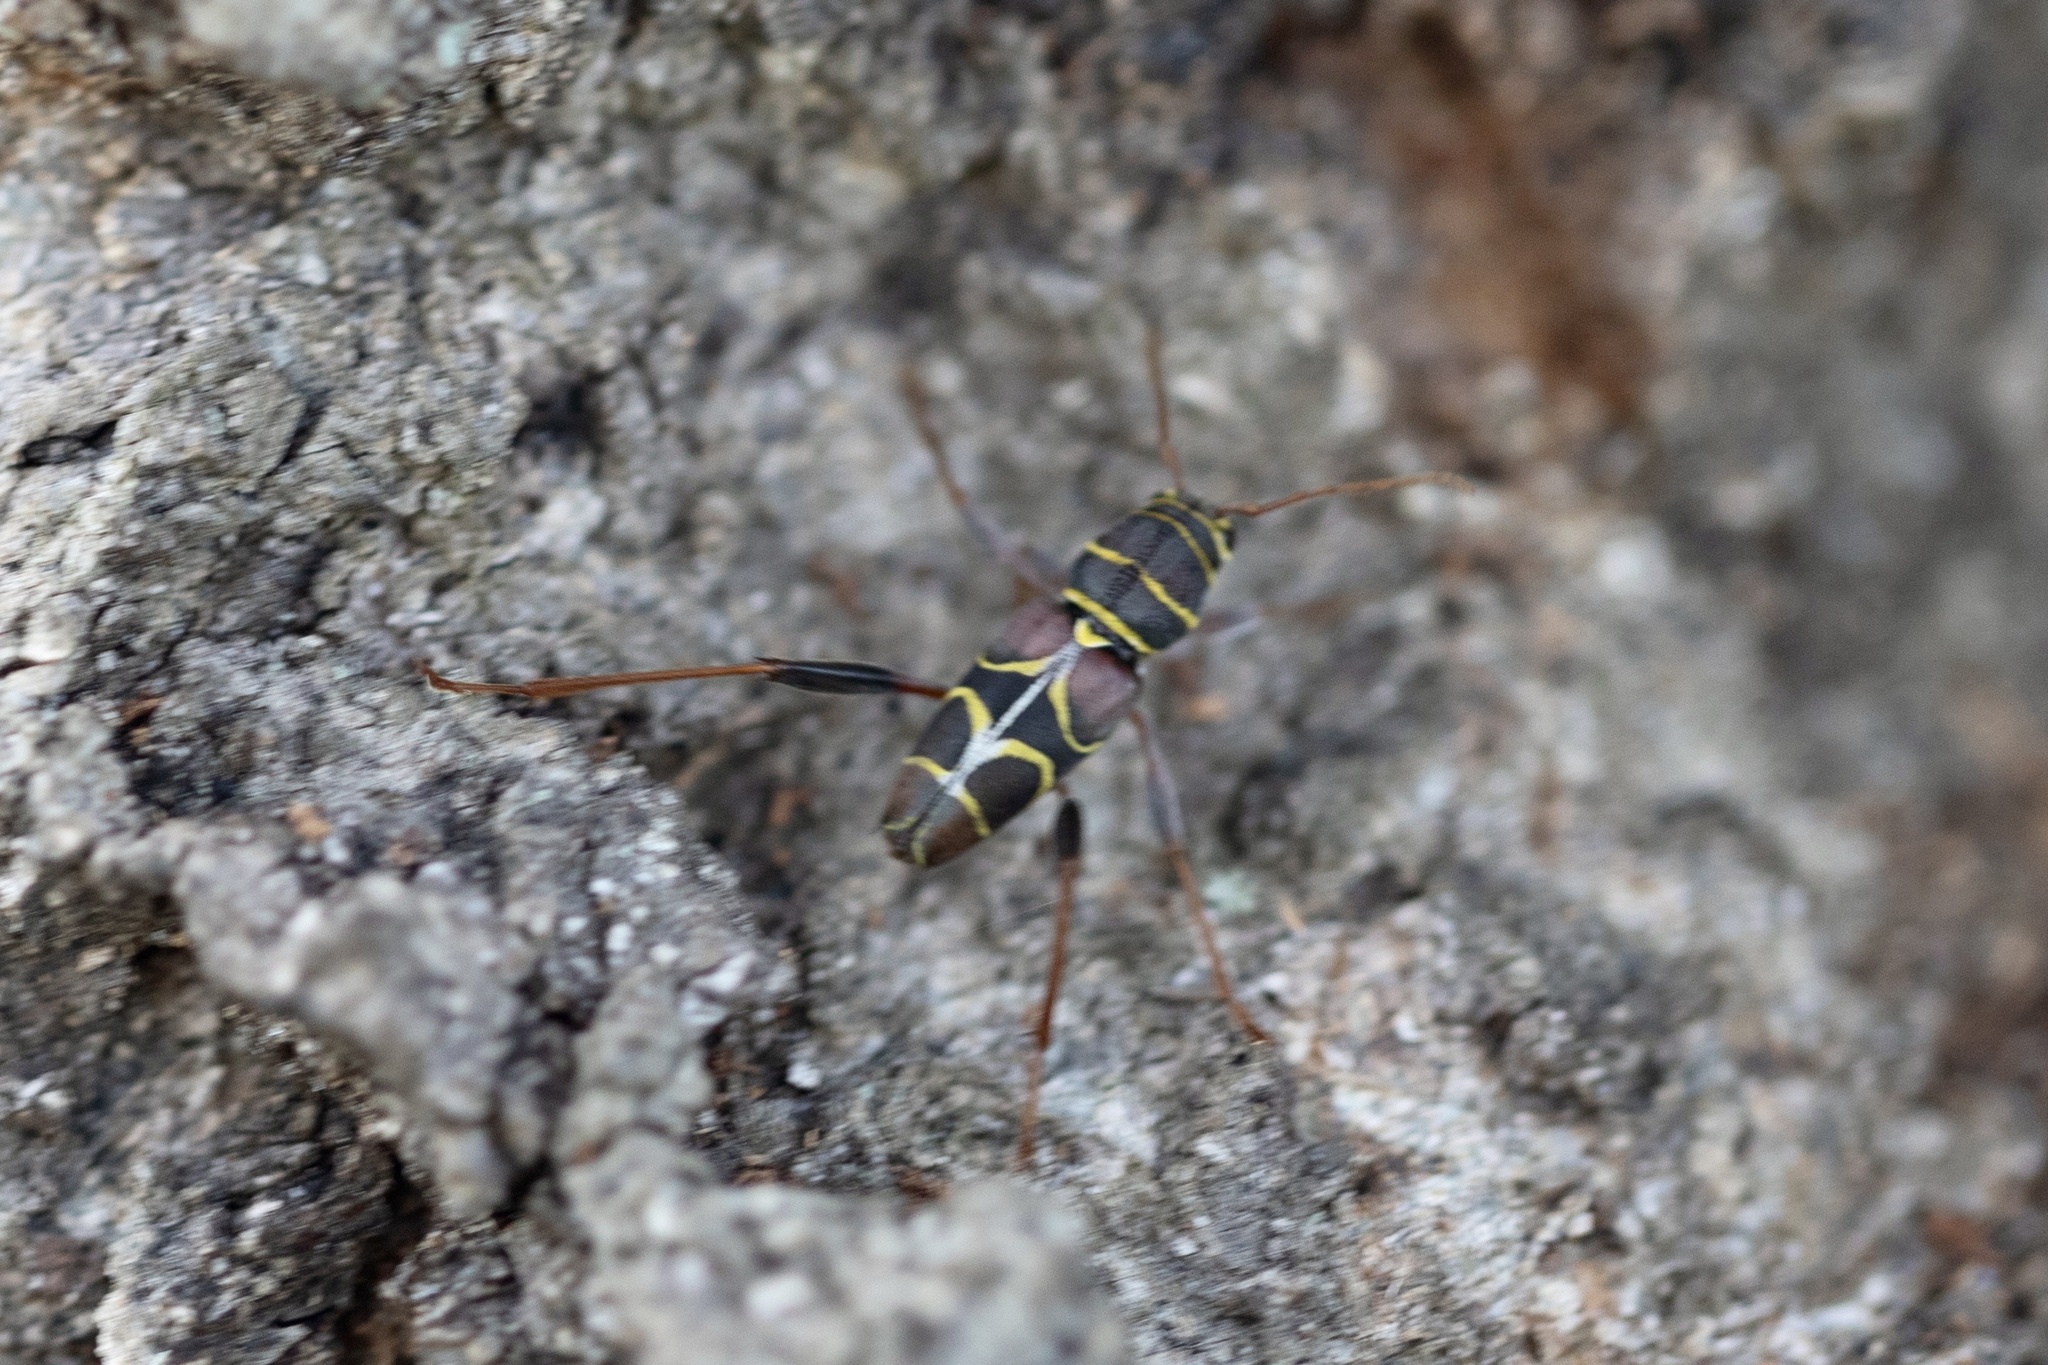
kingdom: Animalia
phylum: Arthropoda
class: Insecta
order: Coleoptera
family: Cerambycidae
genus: Neoclytus
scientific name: Neoclytus scutellaris
